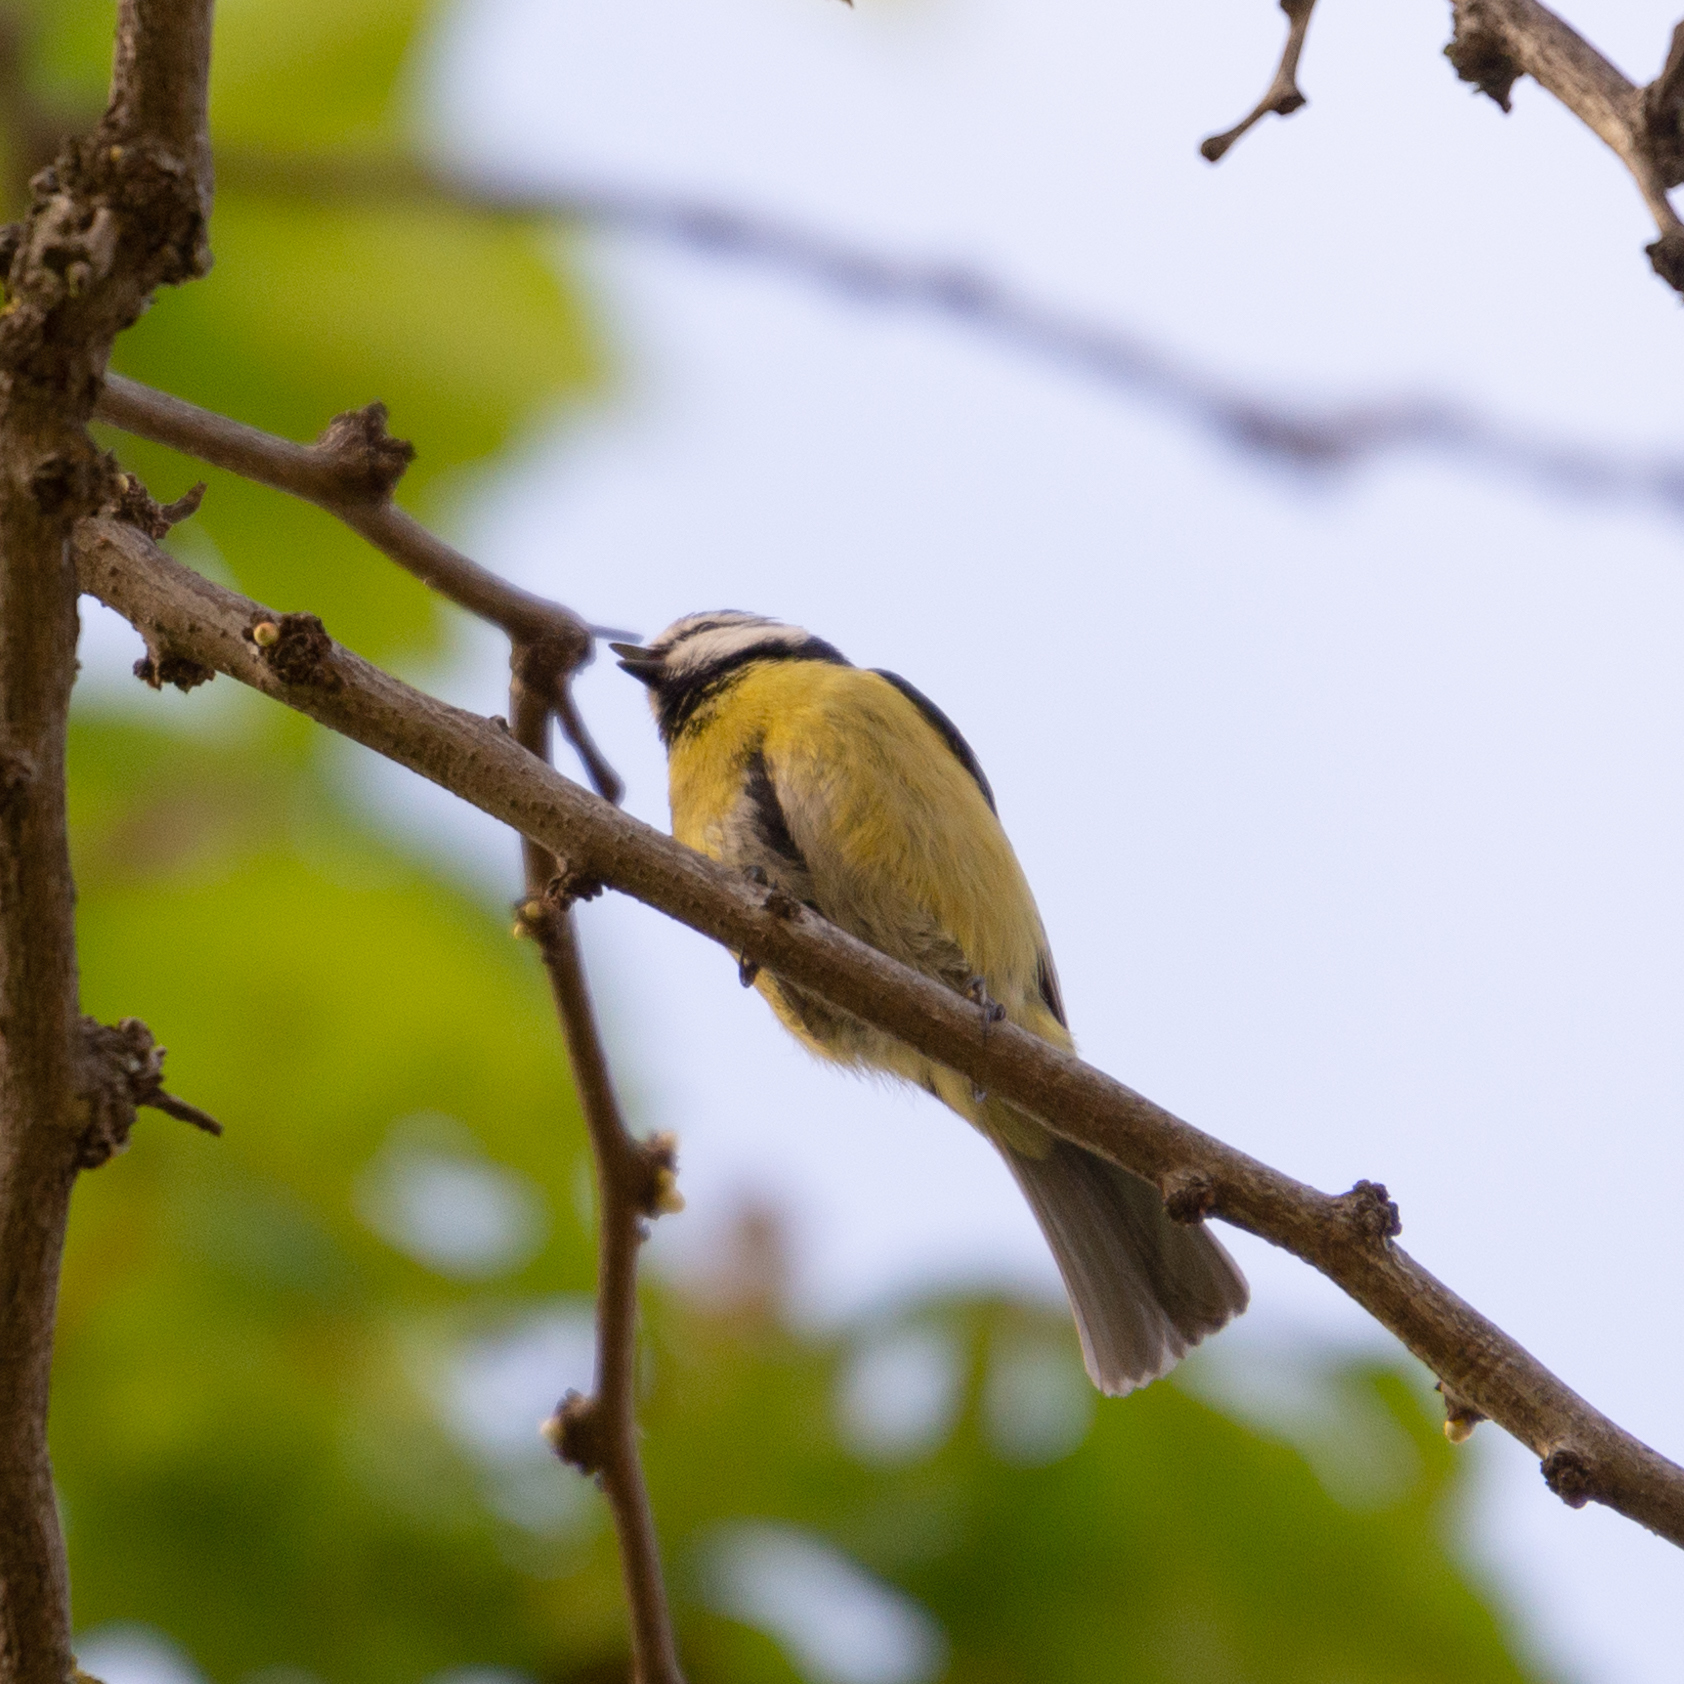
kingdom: Animalia
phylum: Chordata
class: Aves
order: Passeriformes
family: Paridae
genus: Cyanistes
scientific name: Cyanistes caeruleus
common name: Eurasian blue tit
